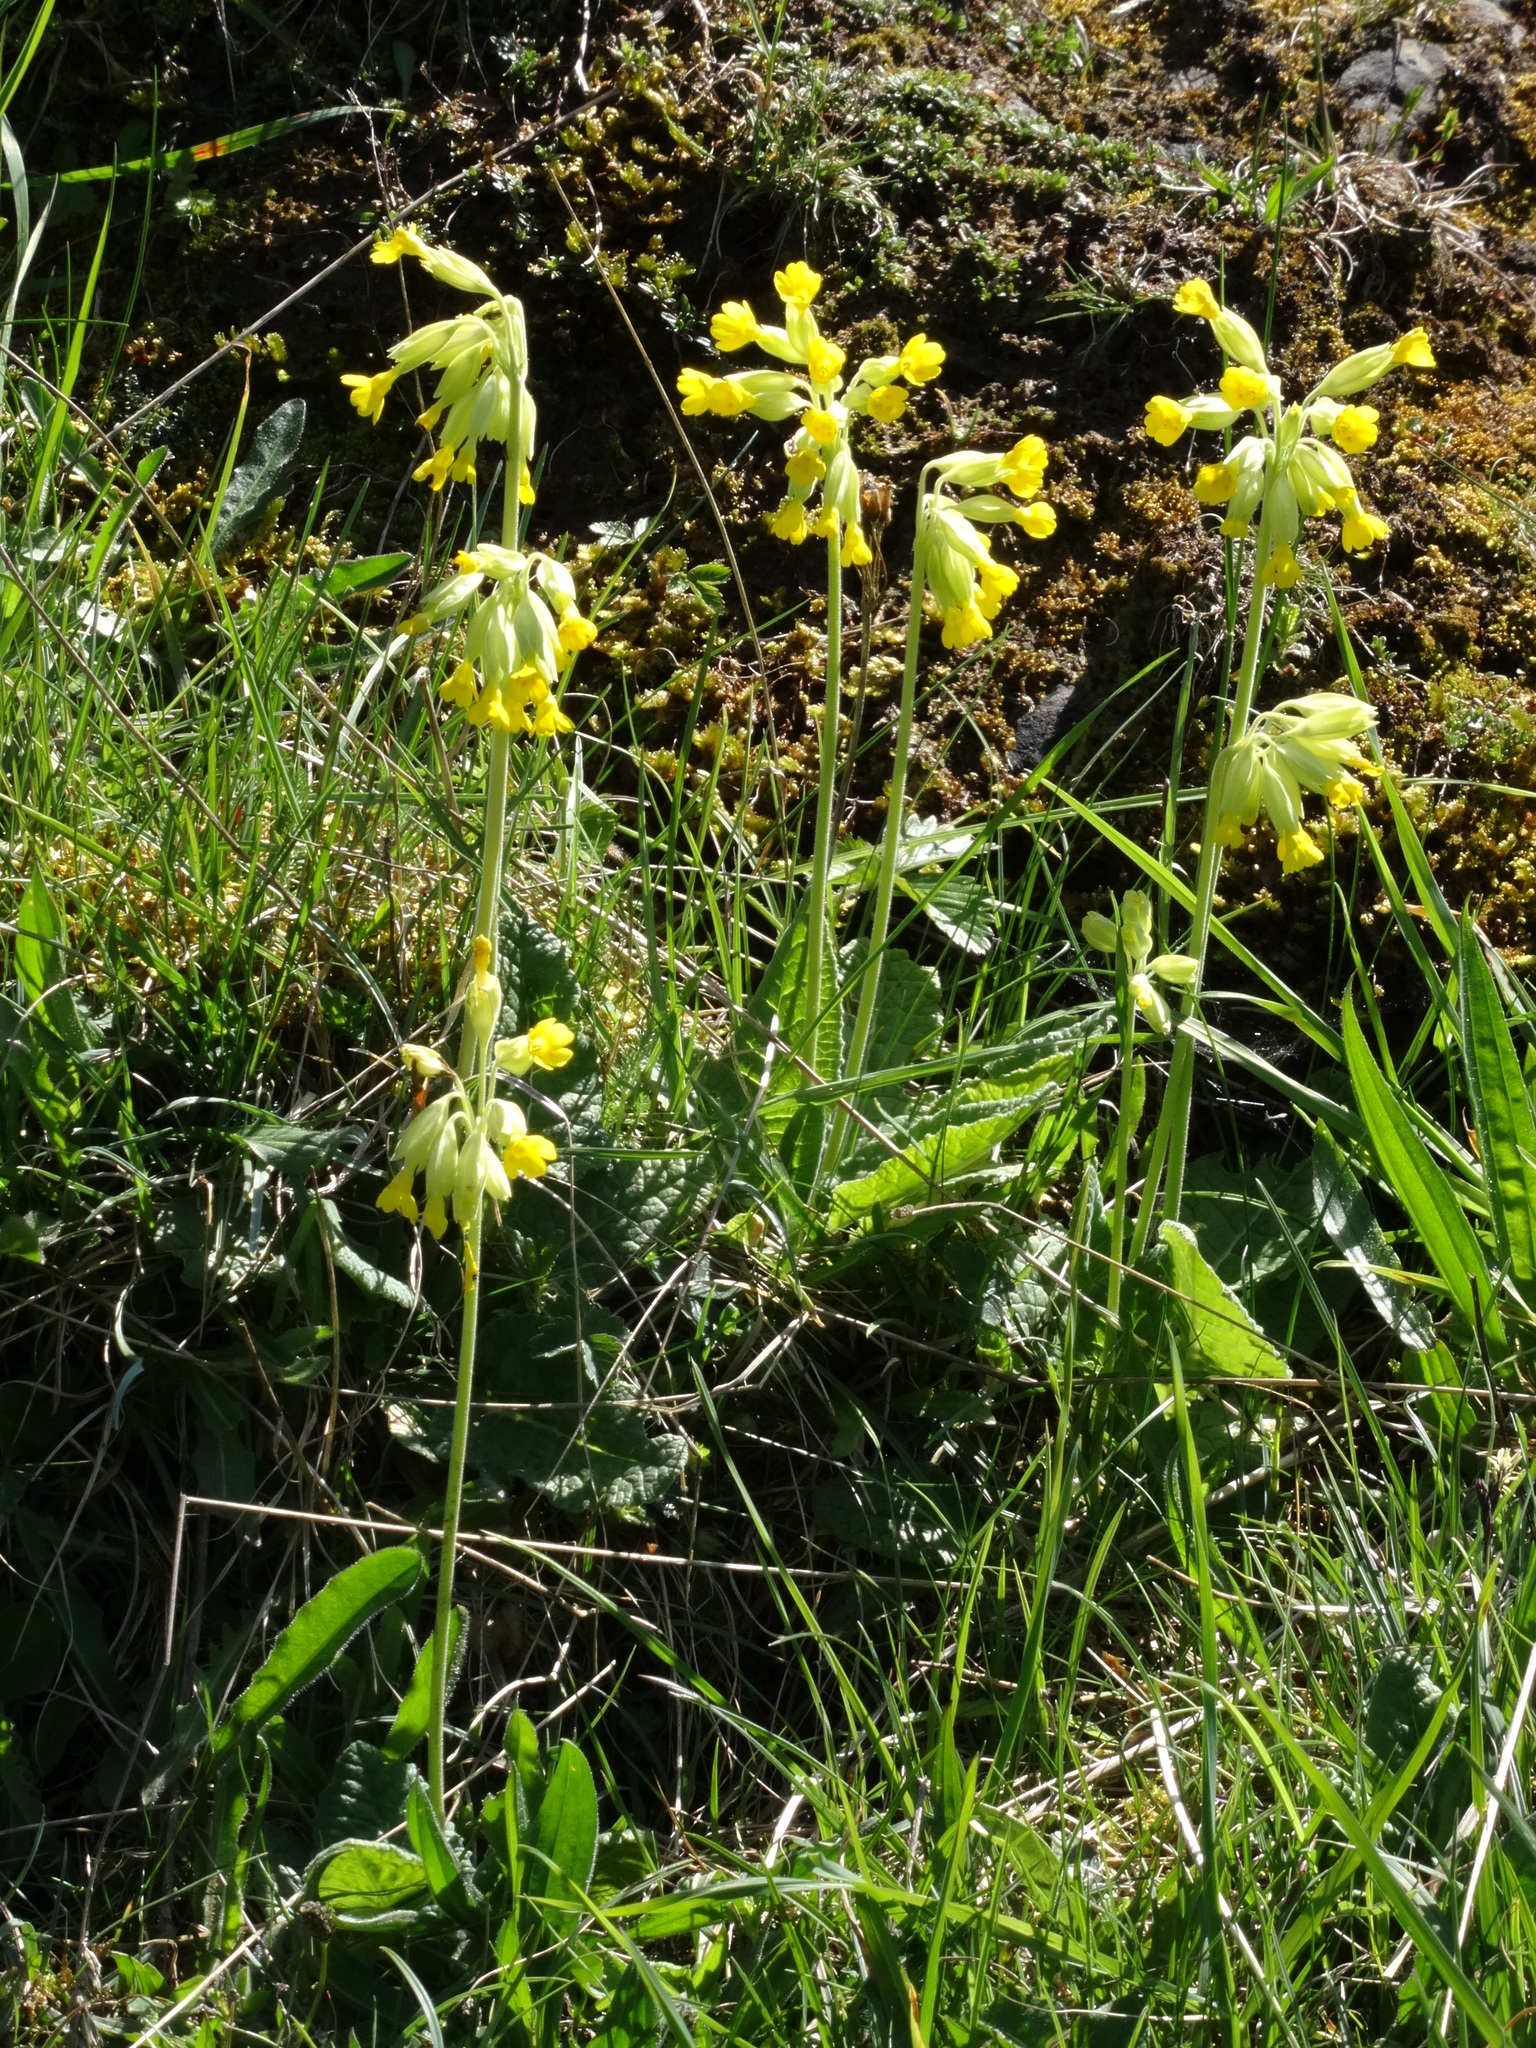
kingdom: Plantae
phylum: Tracheophyta
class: Magnoliopsida
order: Ericales
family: Primulaceae
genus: Primula
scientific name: Primula veris
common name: Cowslip
